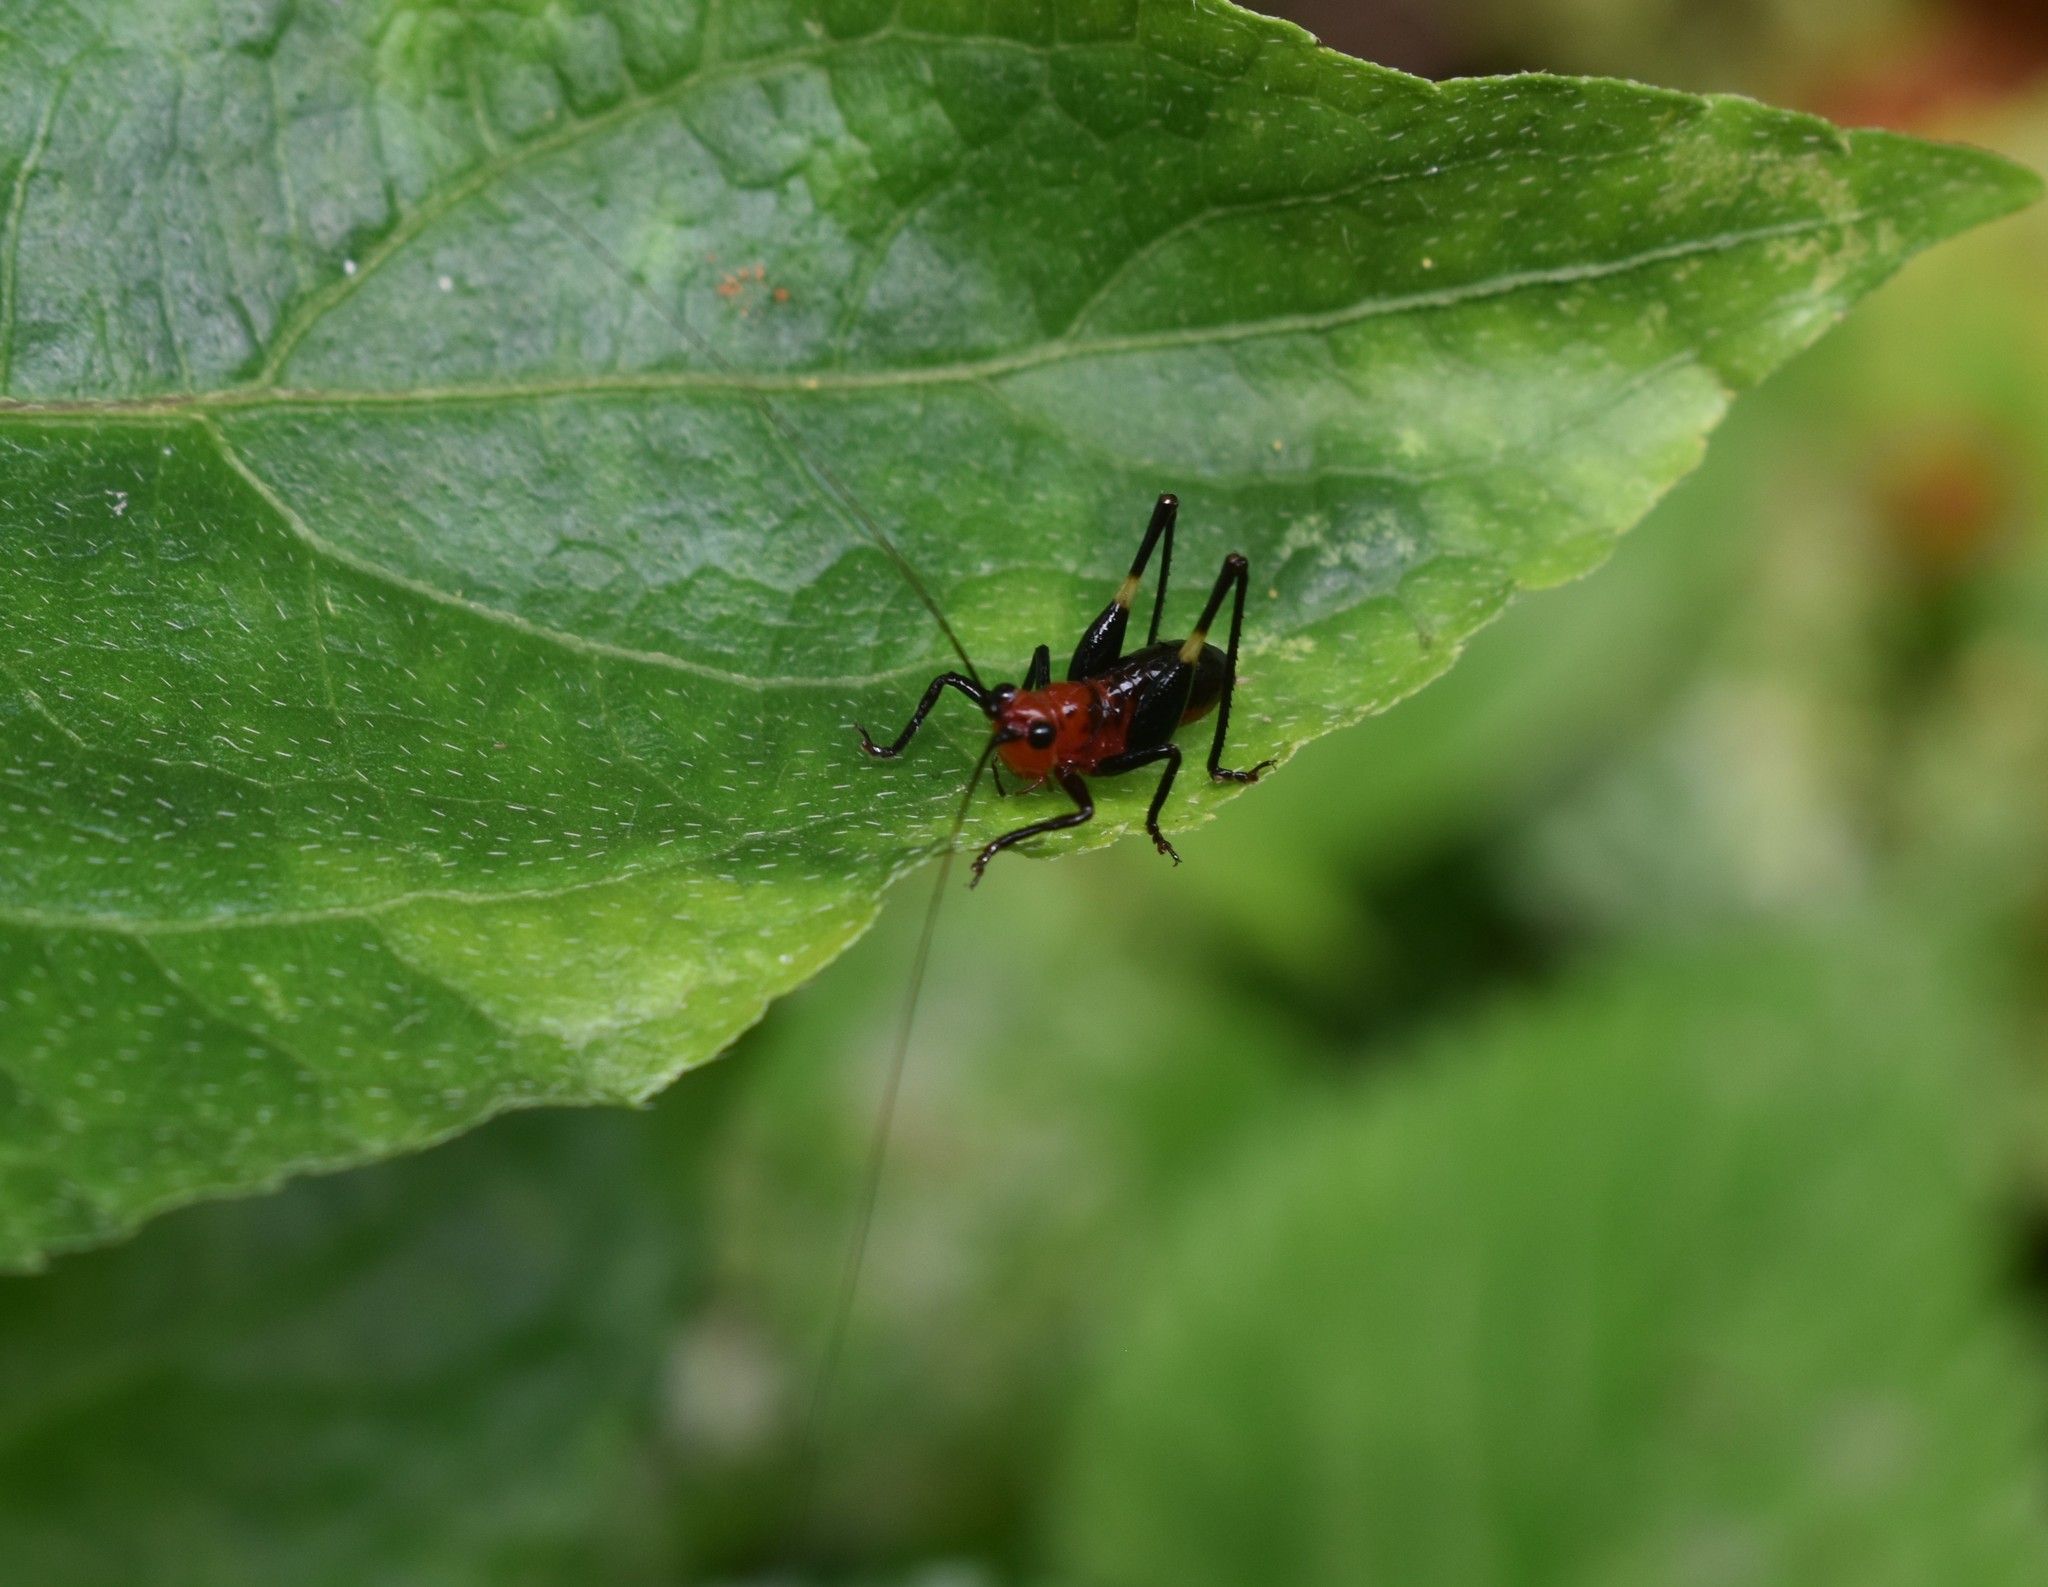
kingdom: Animalia
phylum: Arthropoda
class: Insecta
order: Orthoptera
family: Tettigoniidae
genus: Conocephalus
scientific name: Conocephalus melaenus
